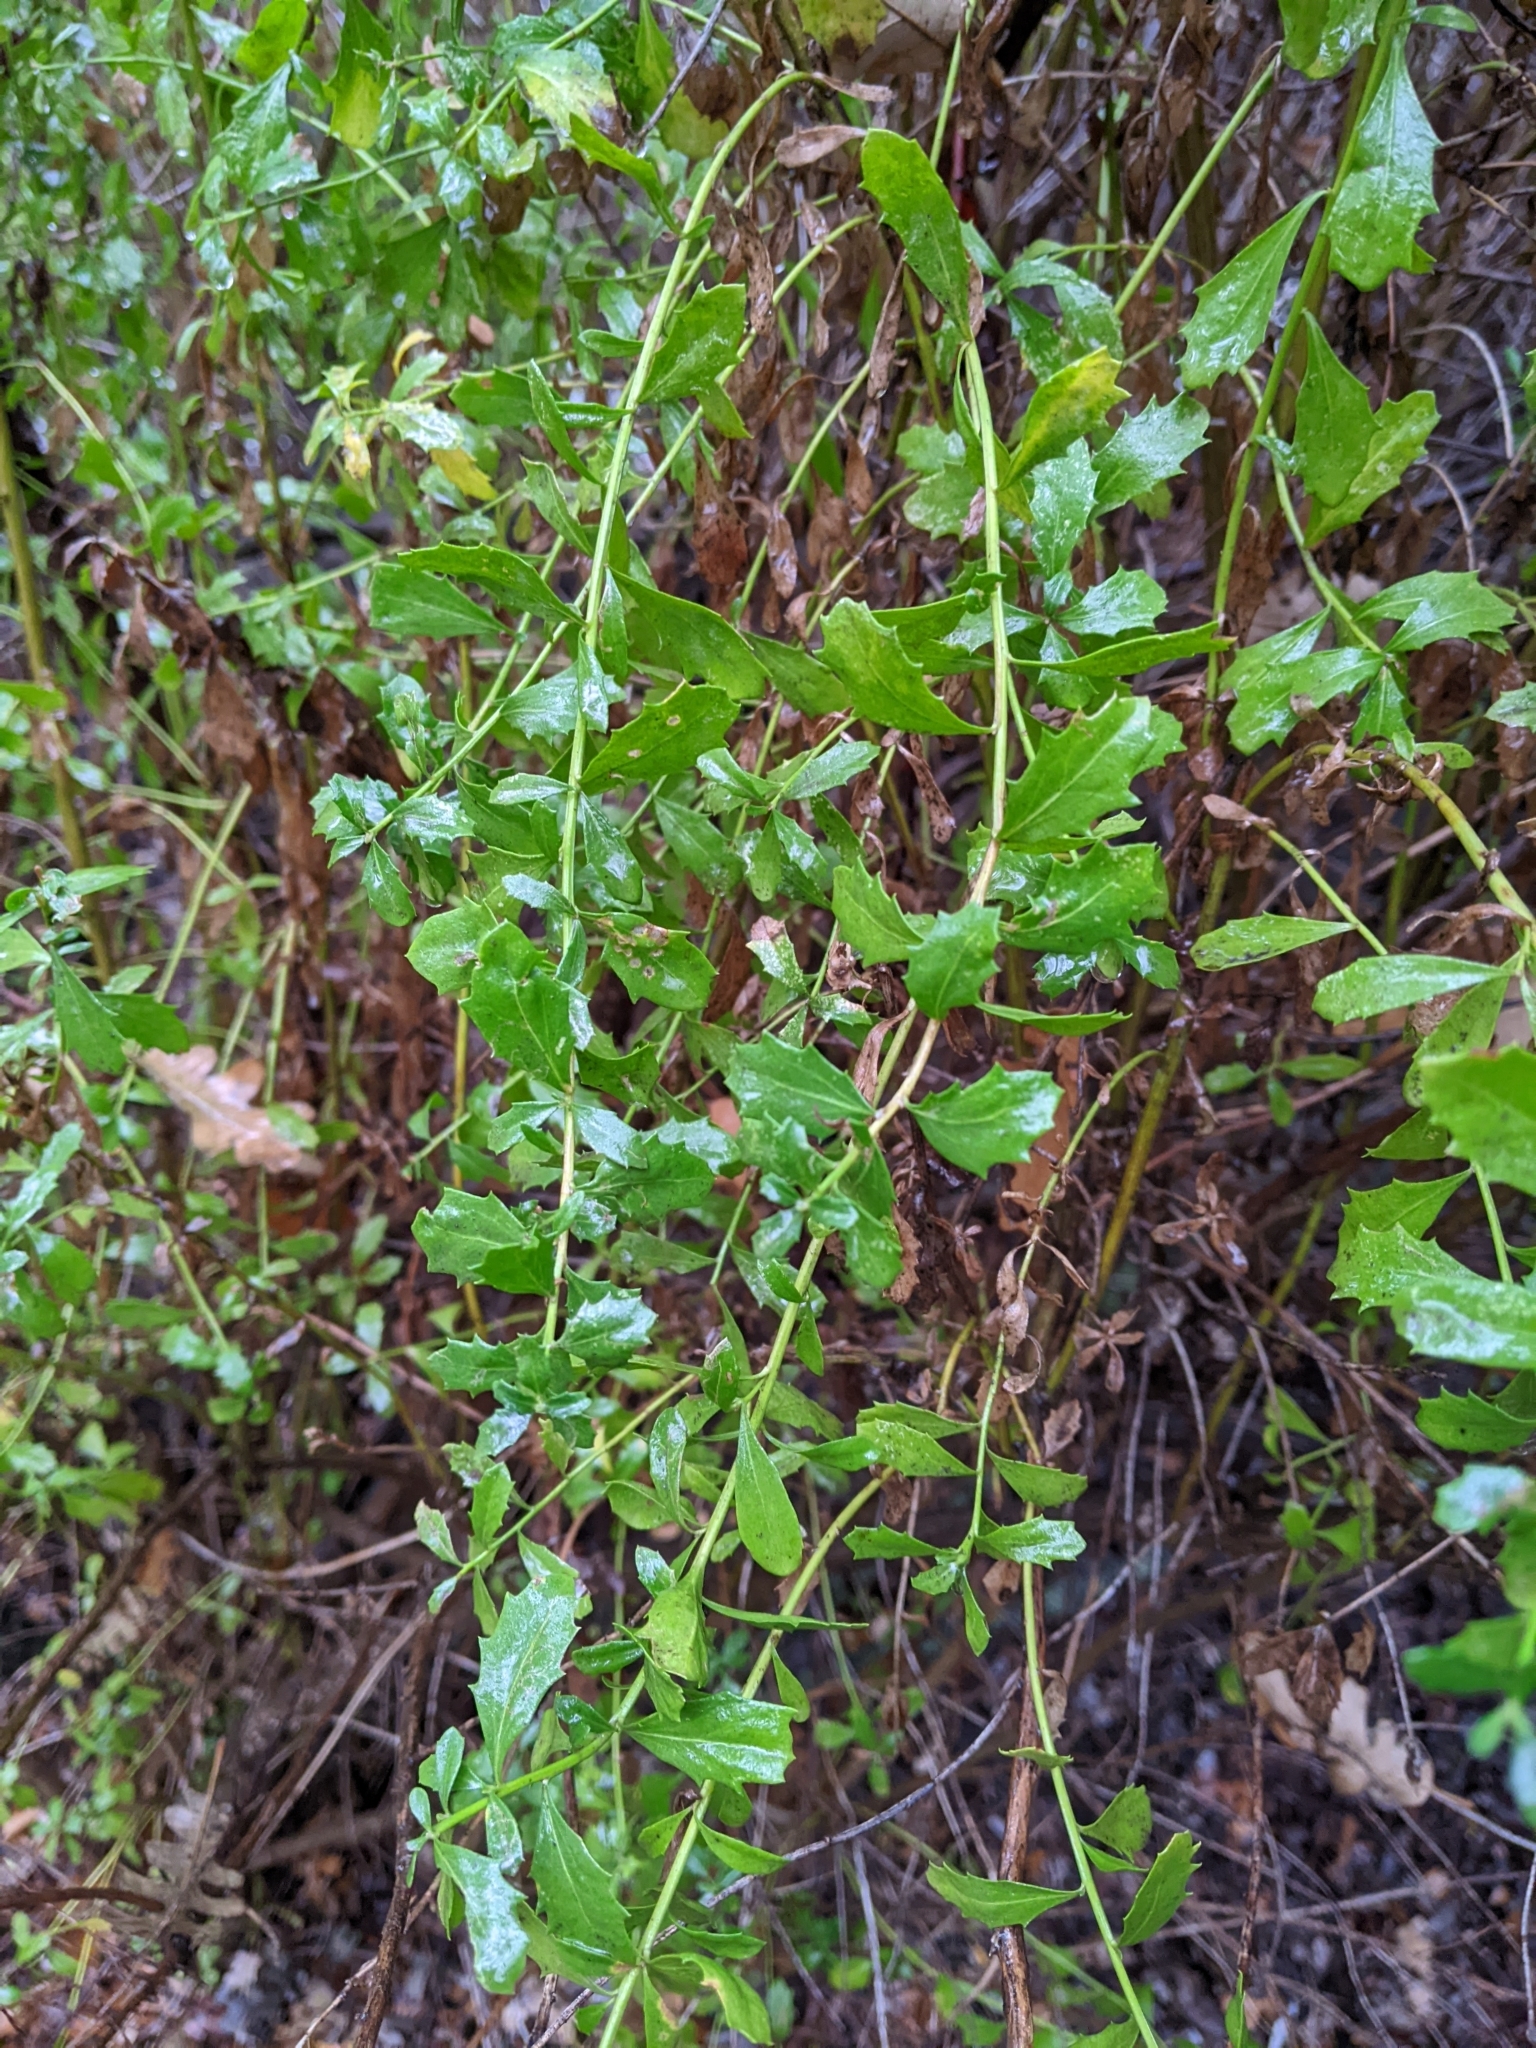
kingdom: Plantae
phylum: Tracheophyta
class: Magnoliopsida
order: Asterales
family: Asteraceae
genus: Baccharis
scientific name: Baccharis pilularis
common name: Coyotebrush
